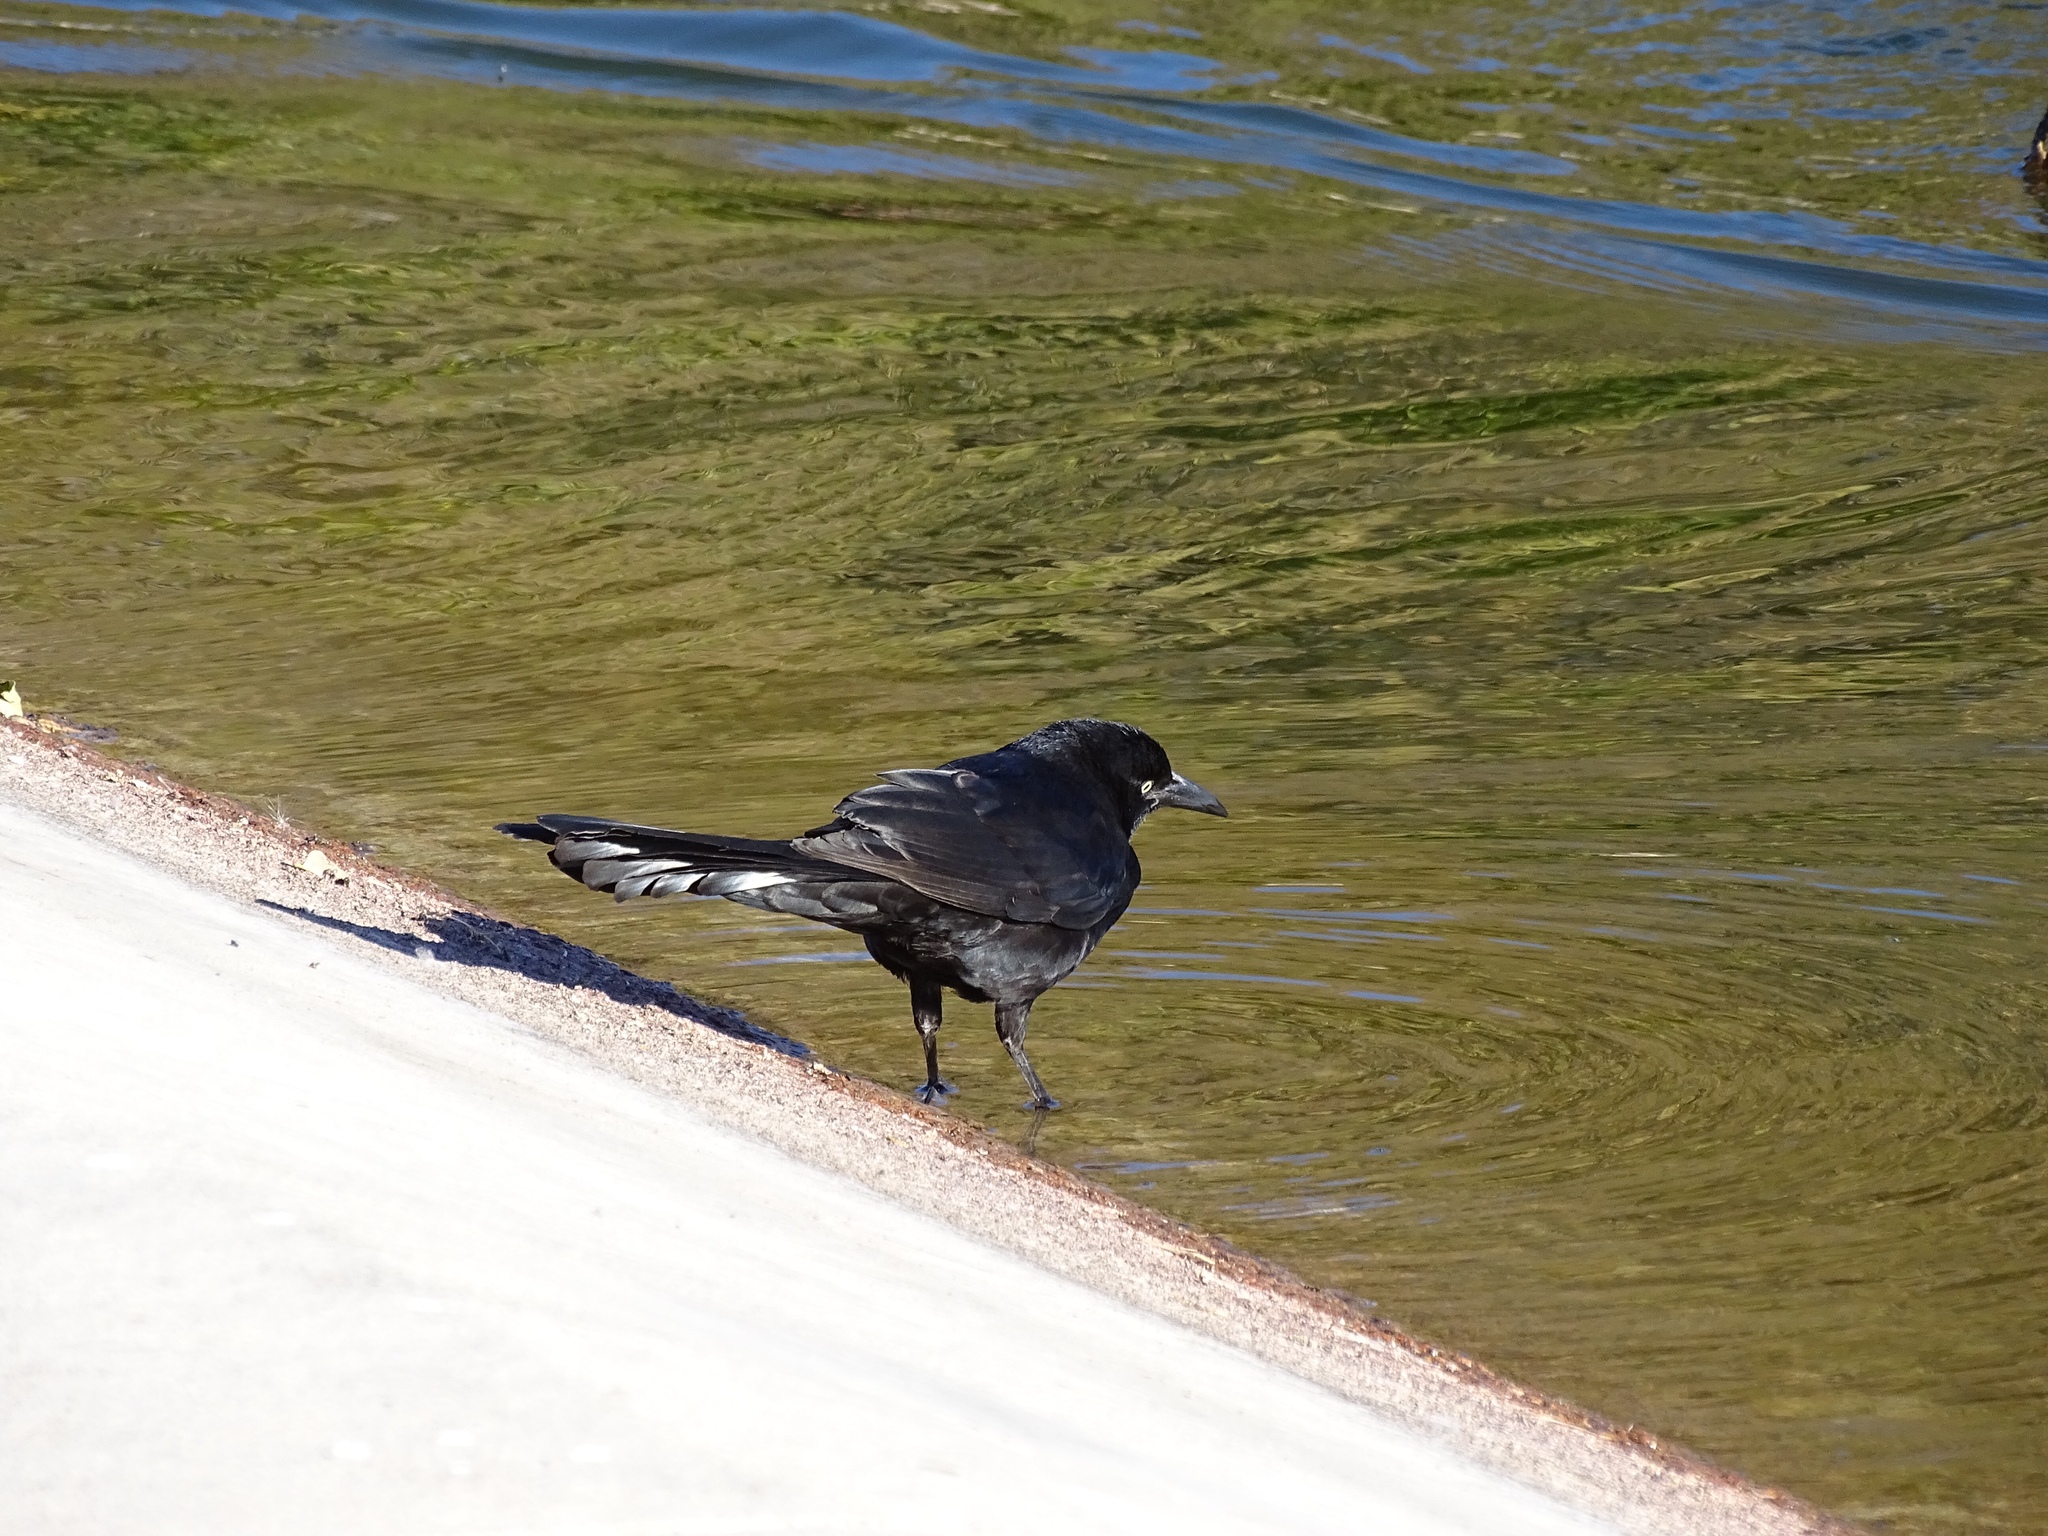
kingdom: Animalia
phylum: Chordata
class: Aves
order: Passeriformes
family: Icteridae
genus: Quiscalus
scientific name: Quiscalus mexicanus
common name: Great-tailed grackle
